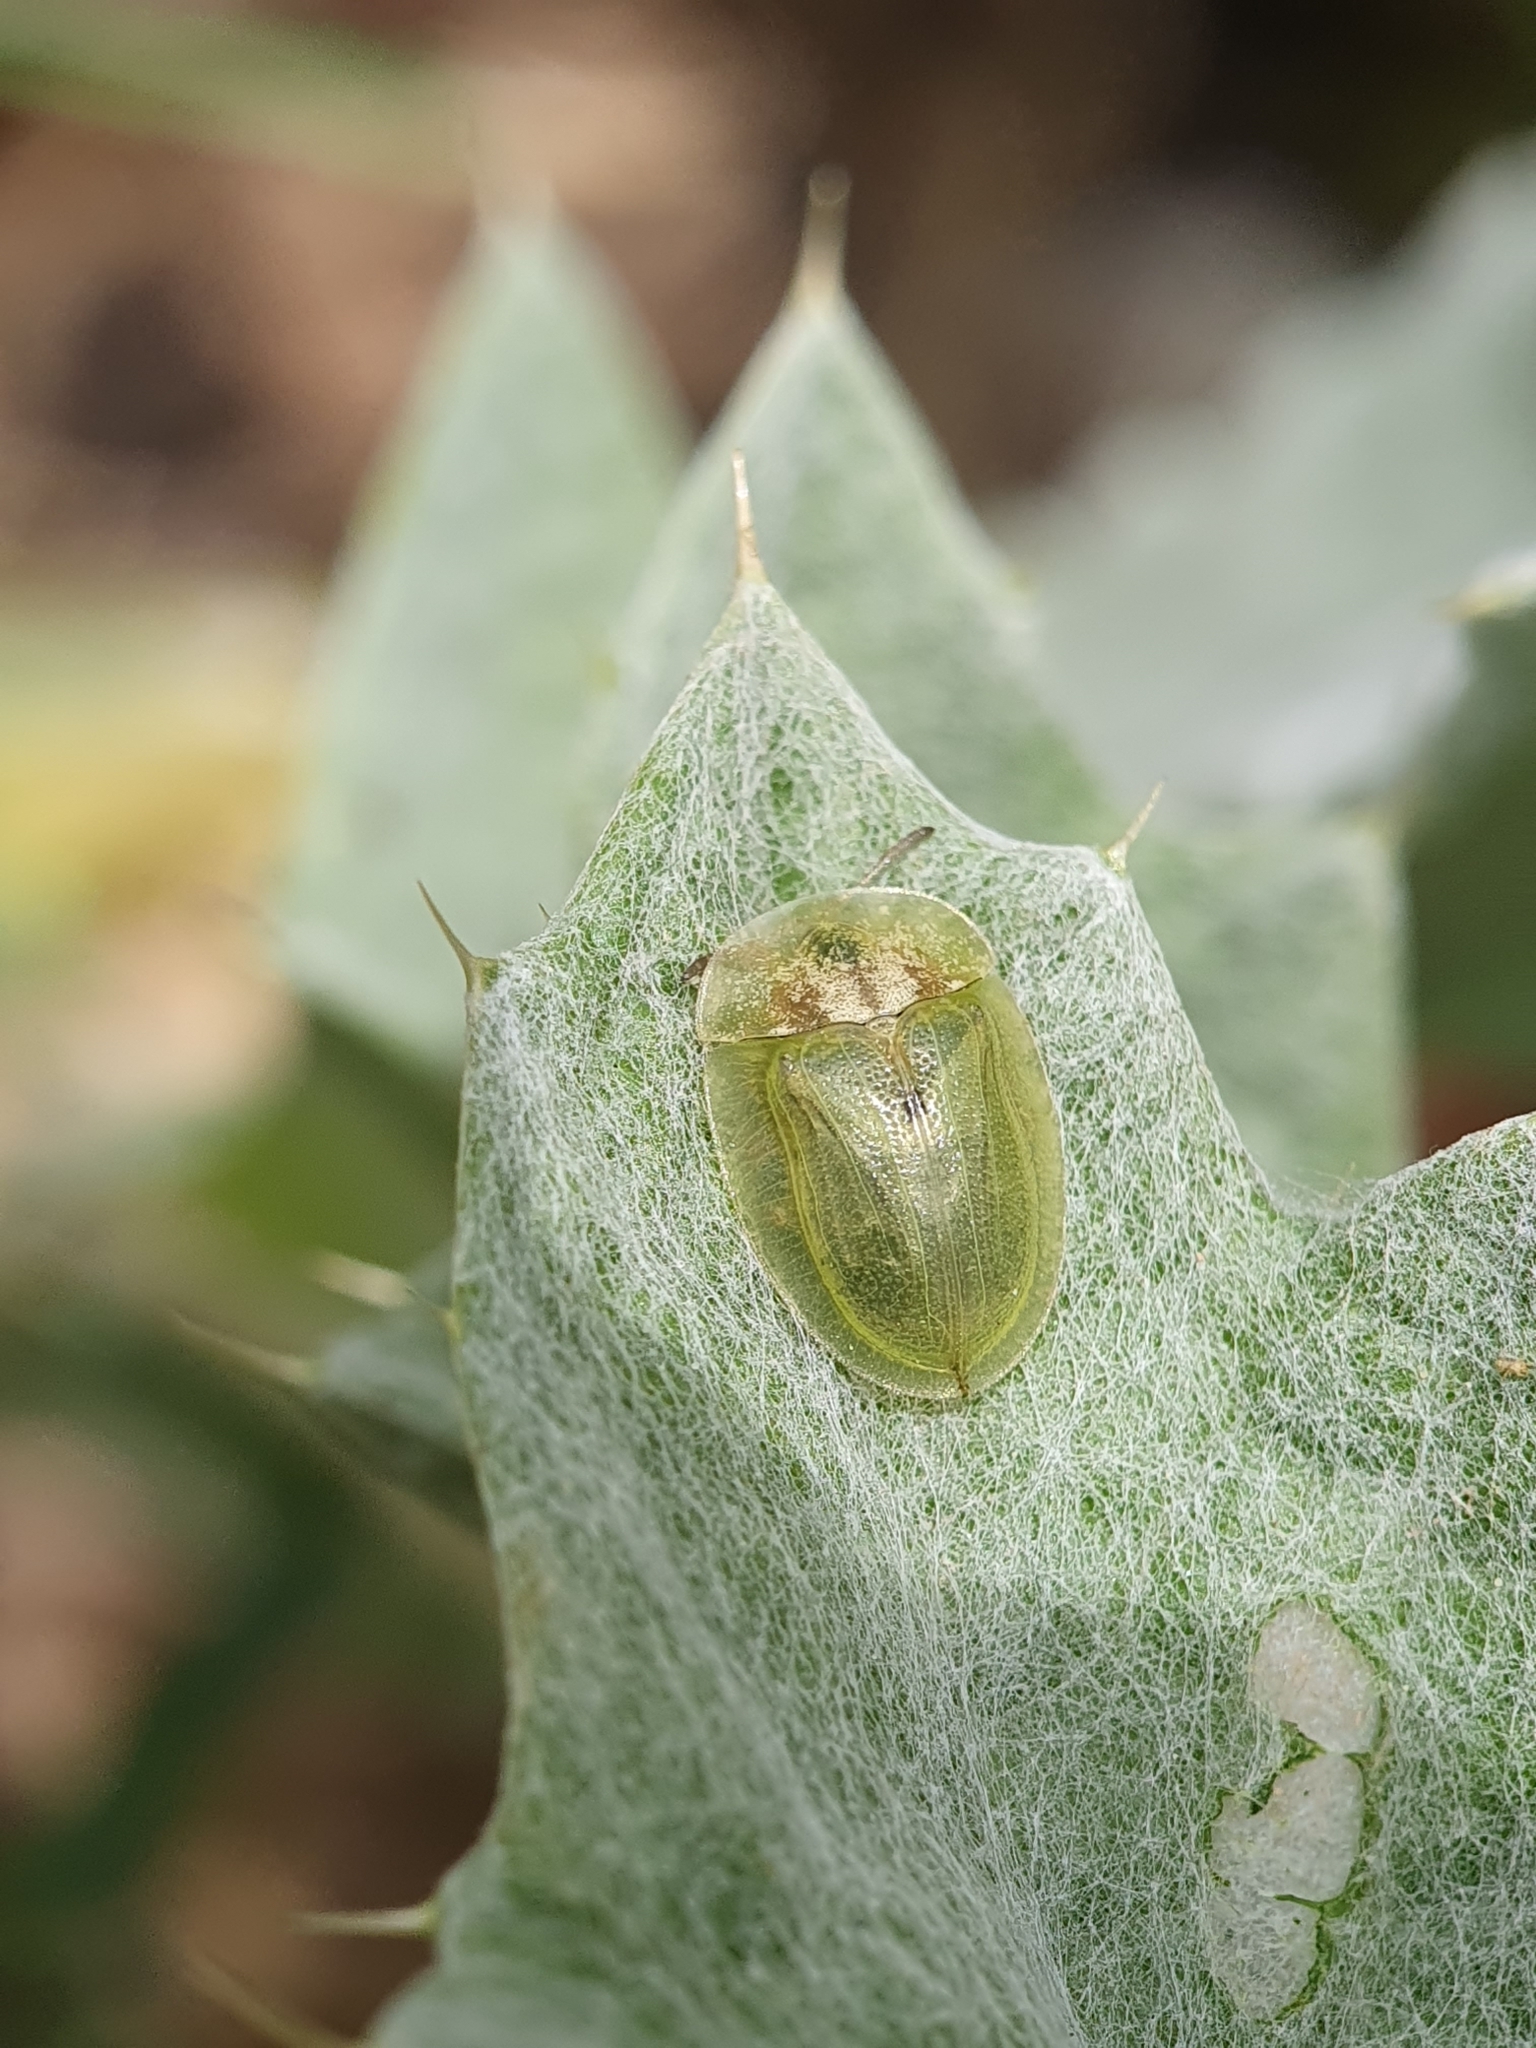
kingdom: Animalia
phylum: Arthropoda
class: Insecta
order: Coleoptera
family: Chrysomelidae
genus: Cassida
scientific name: Cassida deflorata
